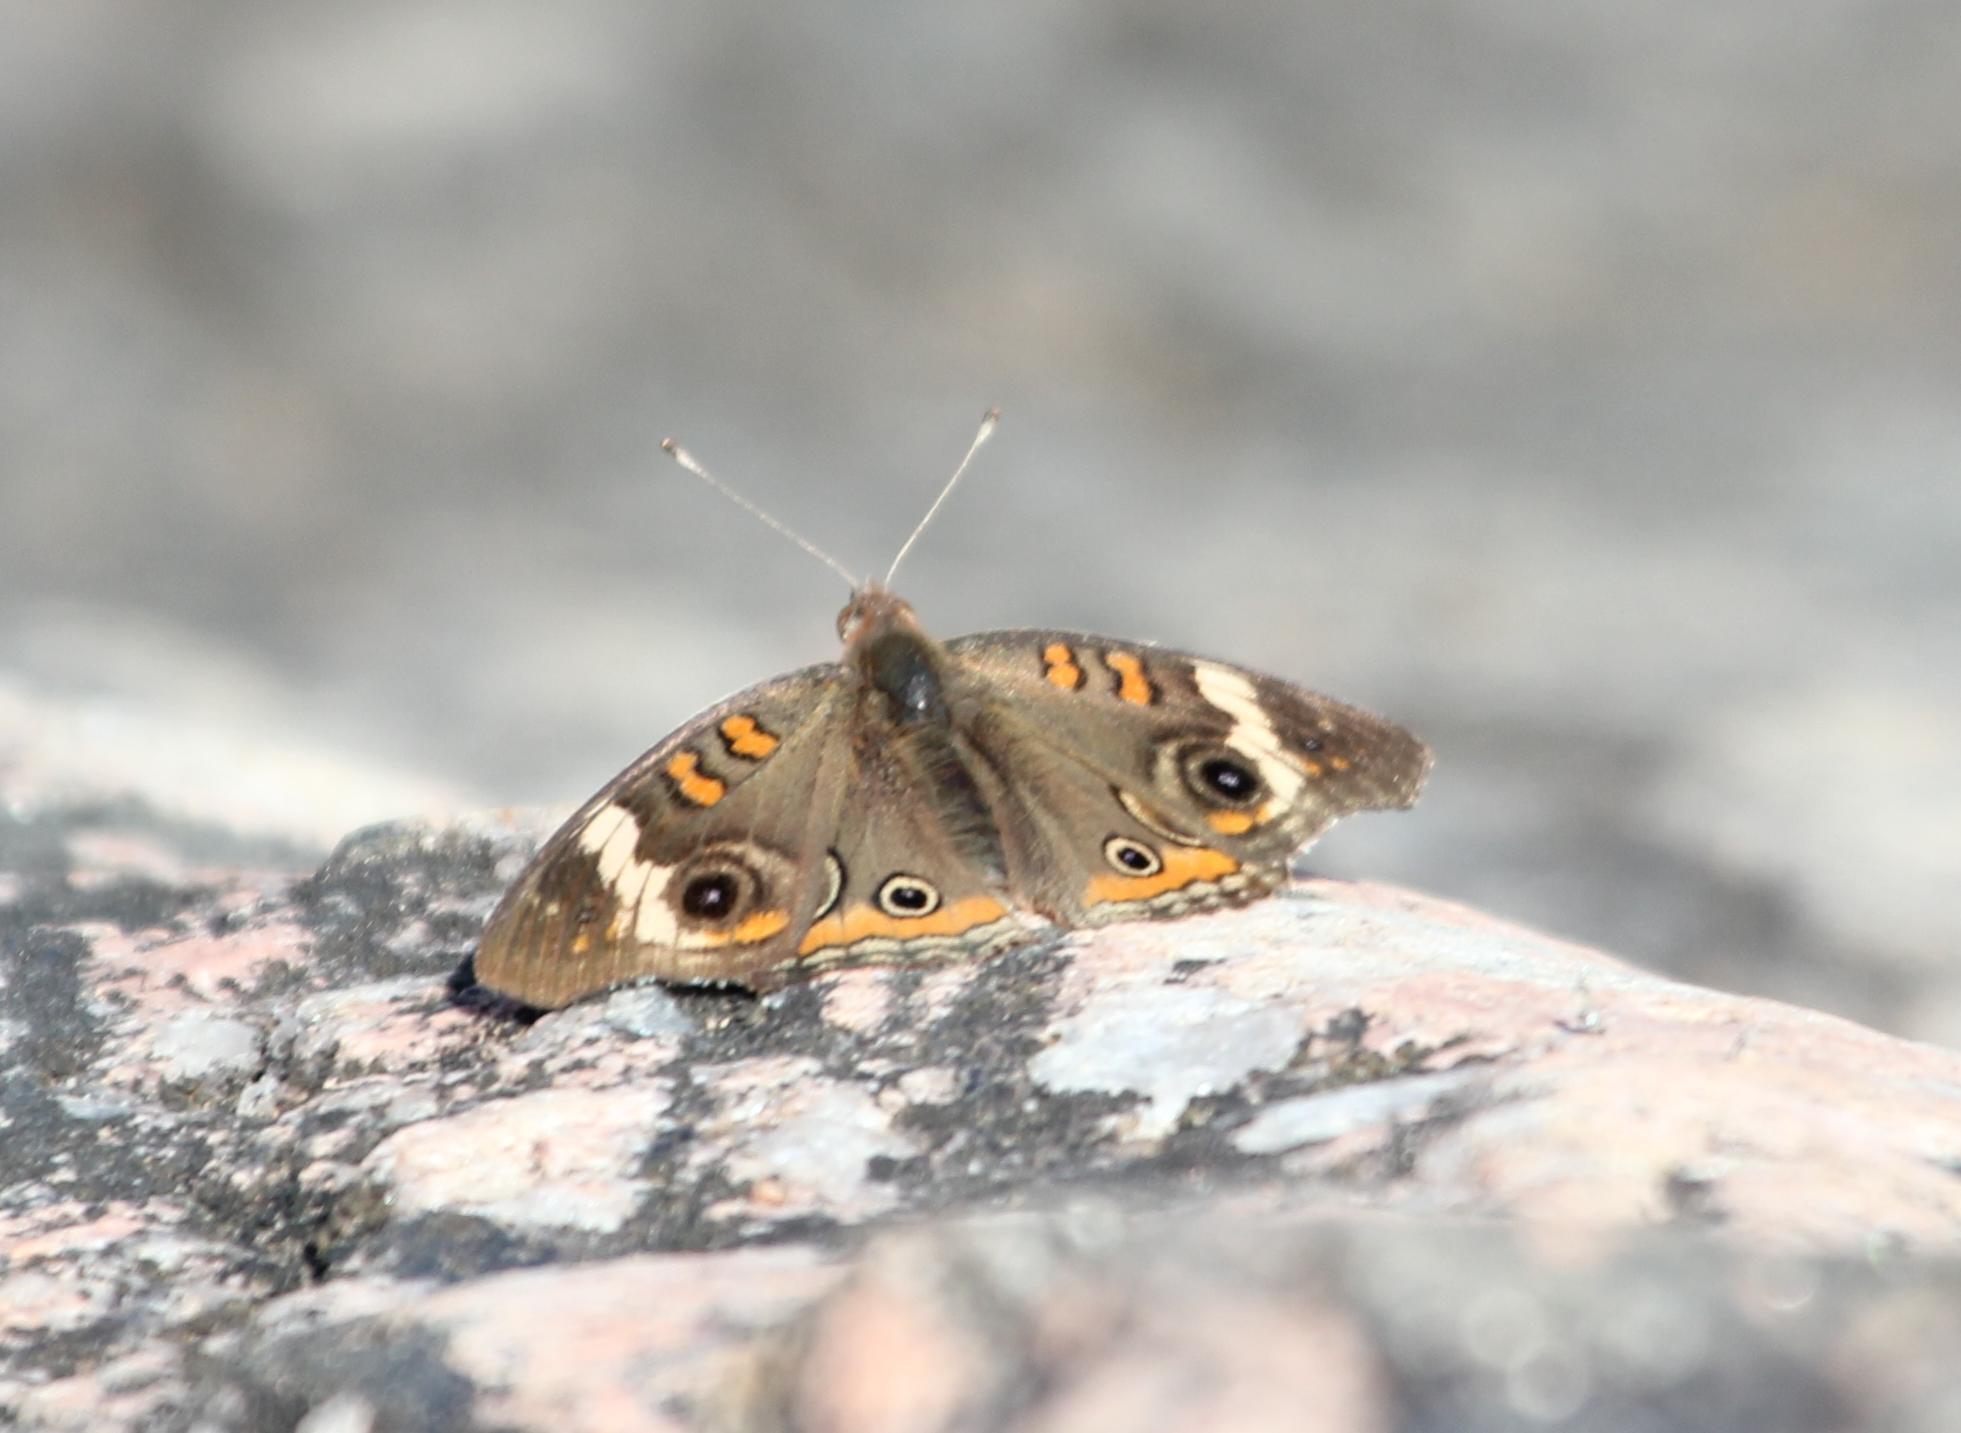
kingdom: Animalia
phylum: Arthropoda
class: Insecta
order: Lepidoptera
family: Nymphalidae
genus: Junonia
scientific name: Junonia coenia
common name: Common buckeye
